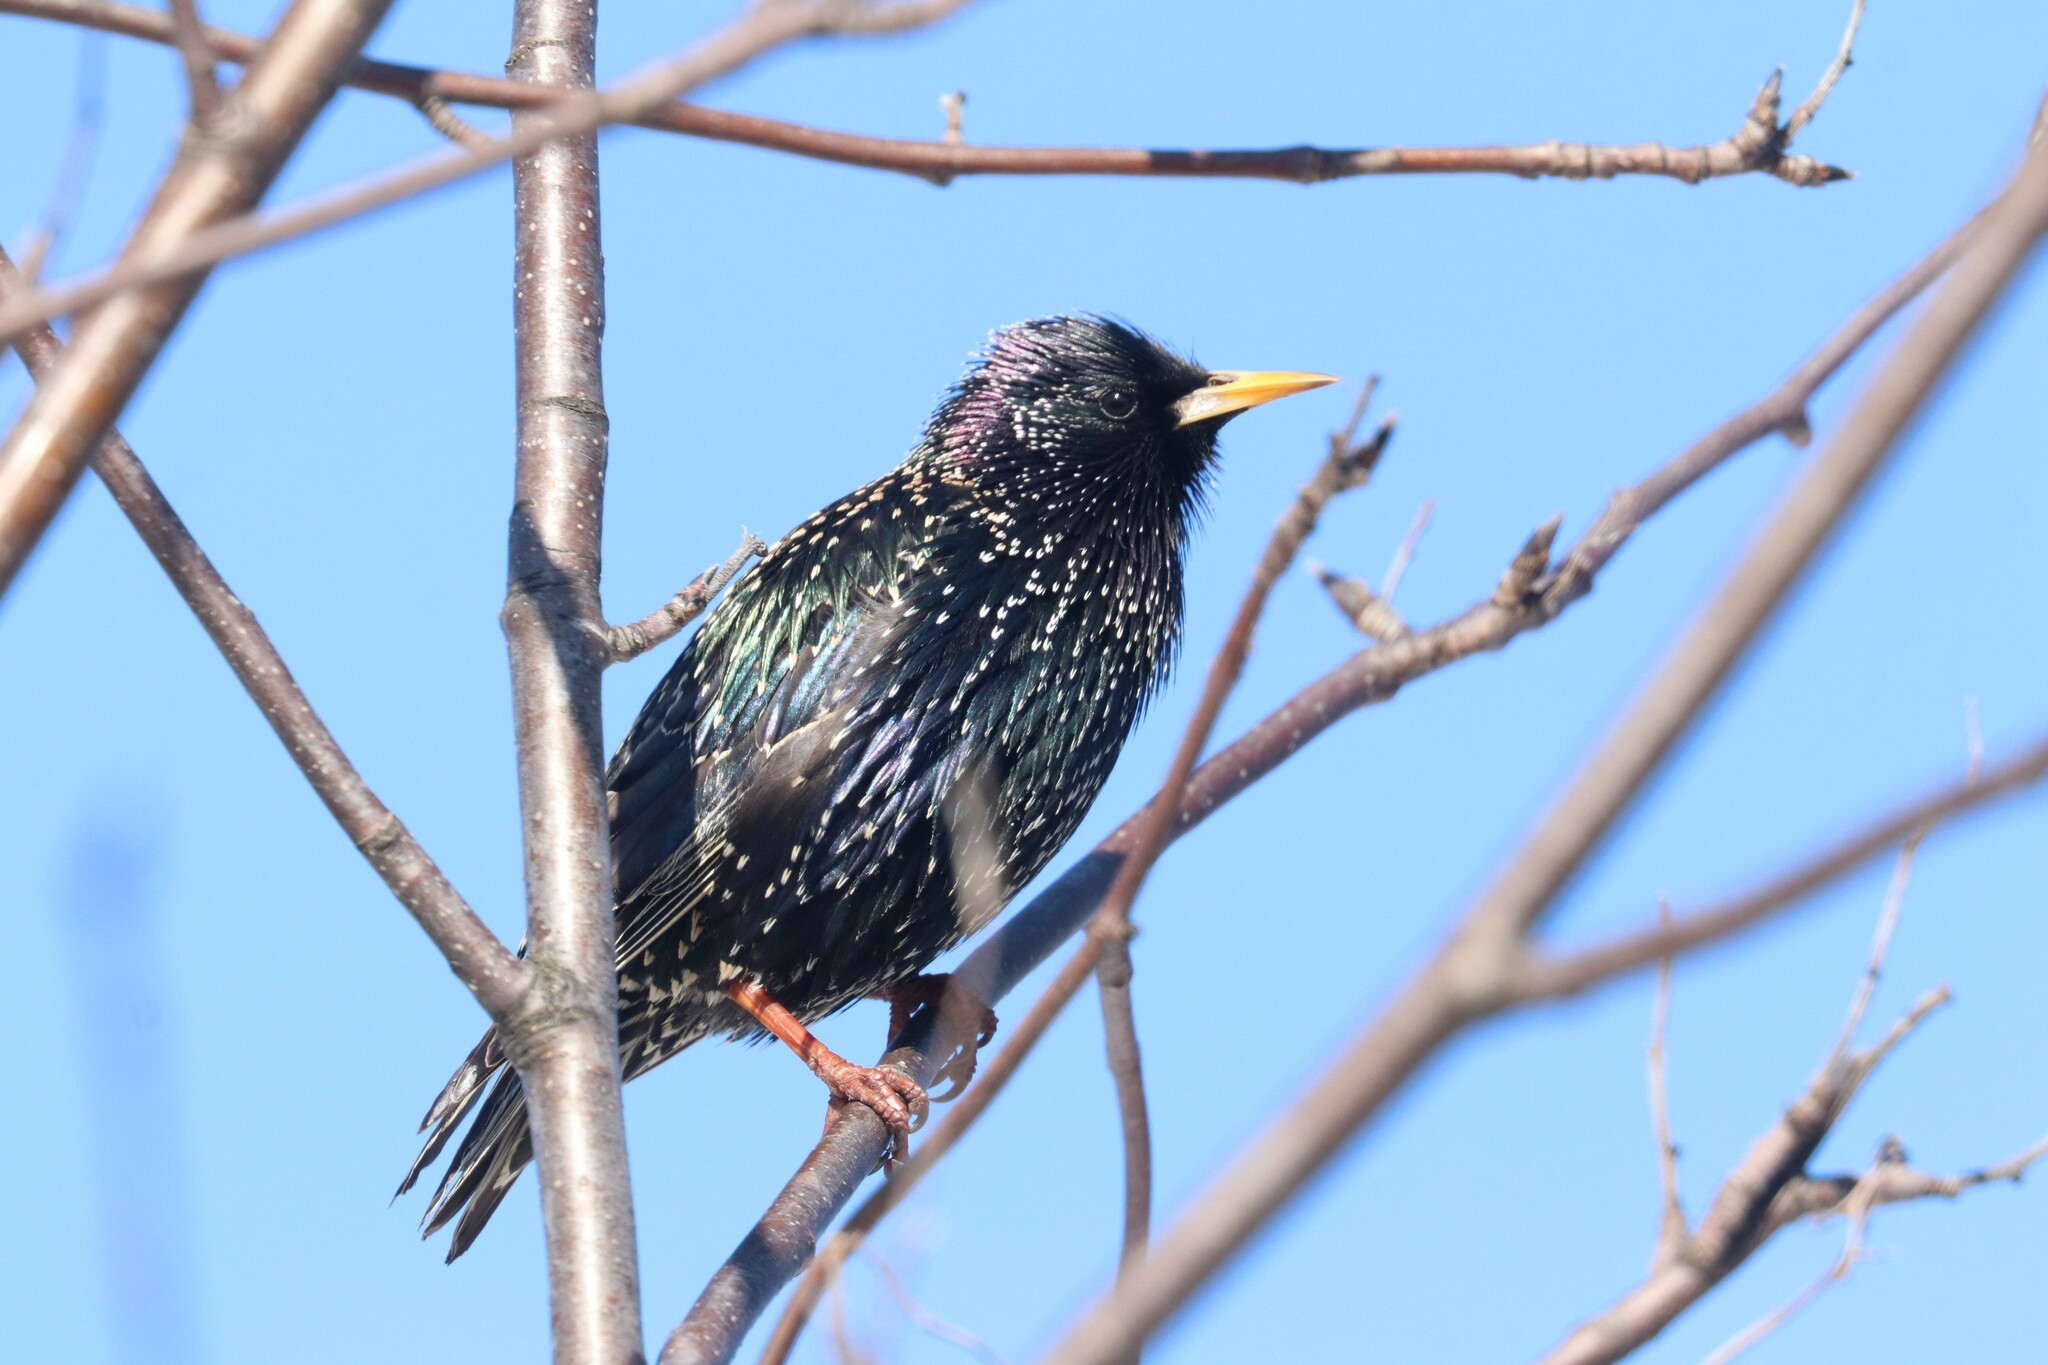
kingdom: Animalia
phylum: Chordata
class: Aves
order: Passeriformes
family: Sturnidae
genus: Sturnus
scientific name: Sturnus vulgaris
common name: Common starling
